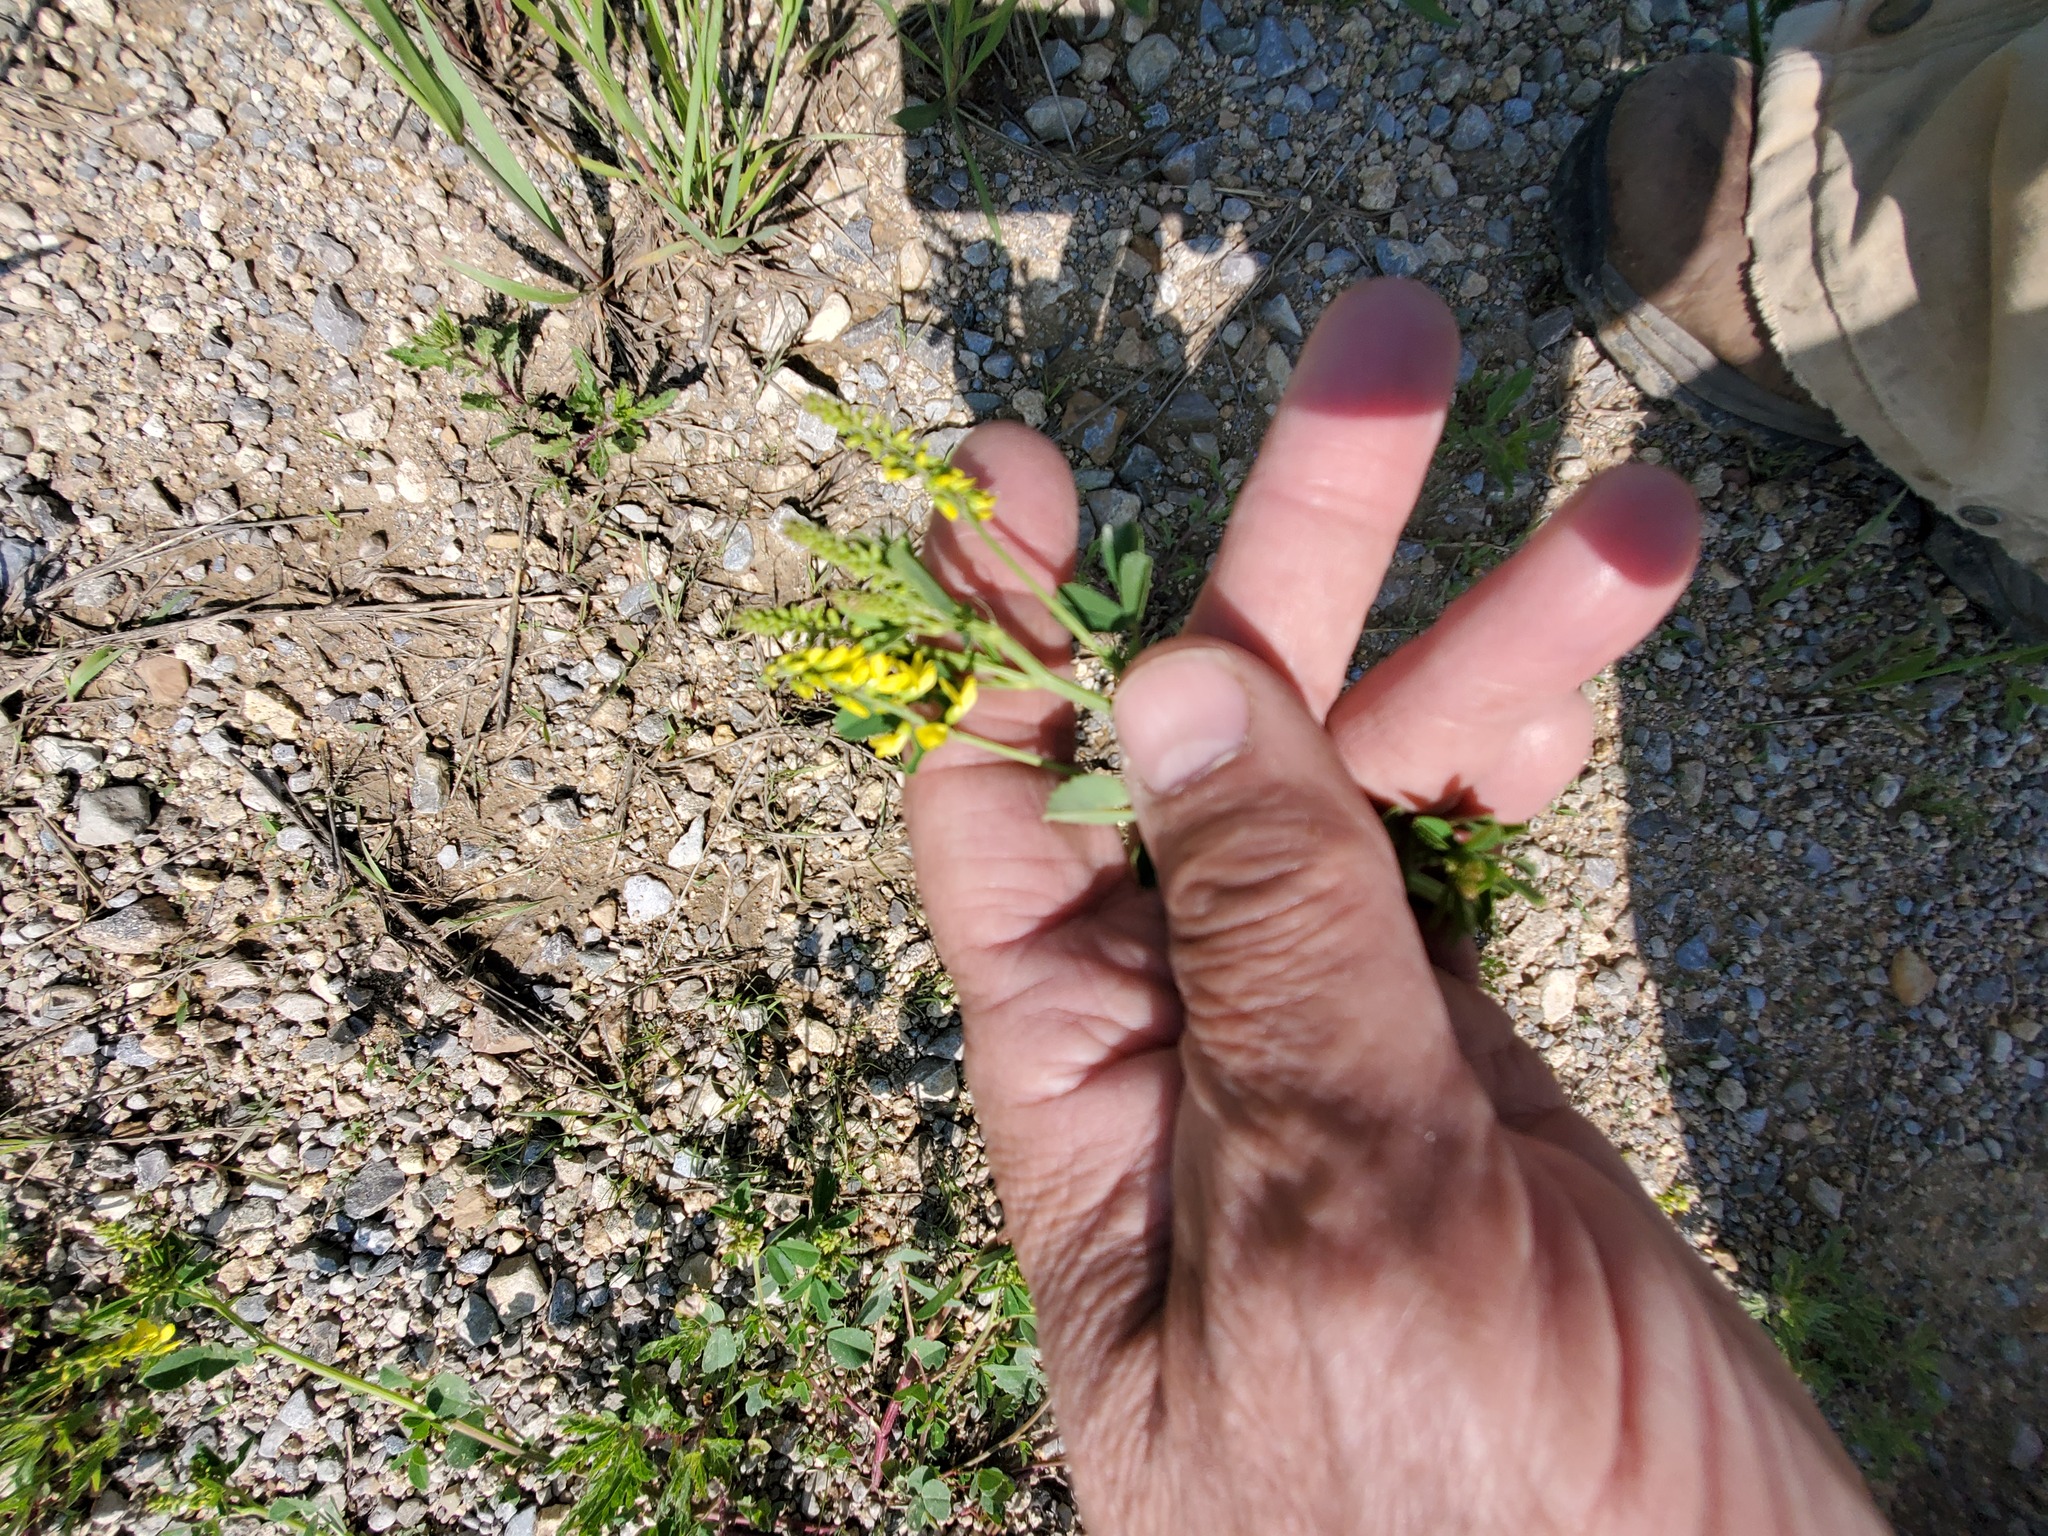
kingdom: Plantae
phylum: Tracheophyta
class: Magnoliopsida
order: Fabales
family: Fabaceae
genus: Melilotus
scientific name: Melilotus officinalis
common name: Sweetclover
